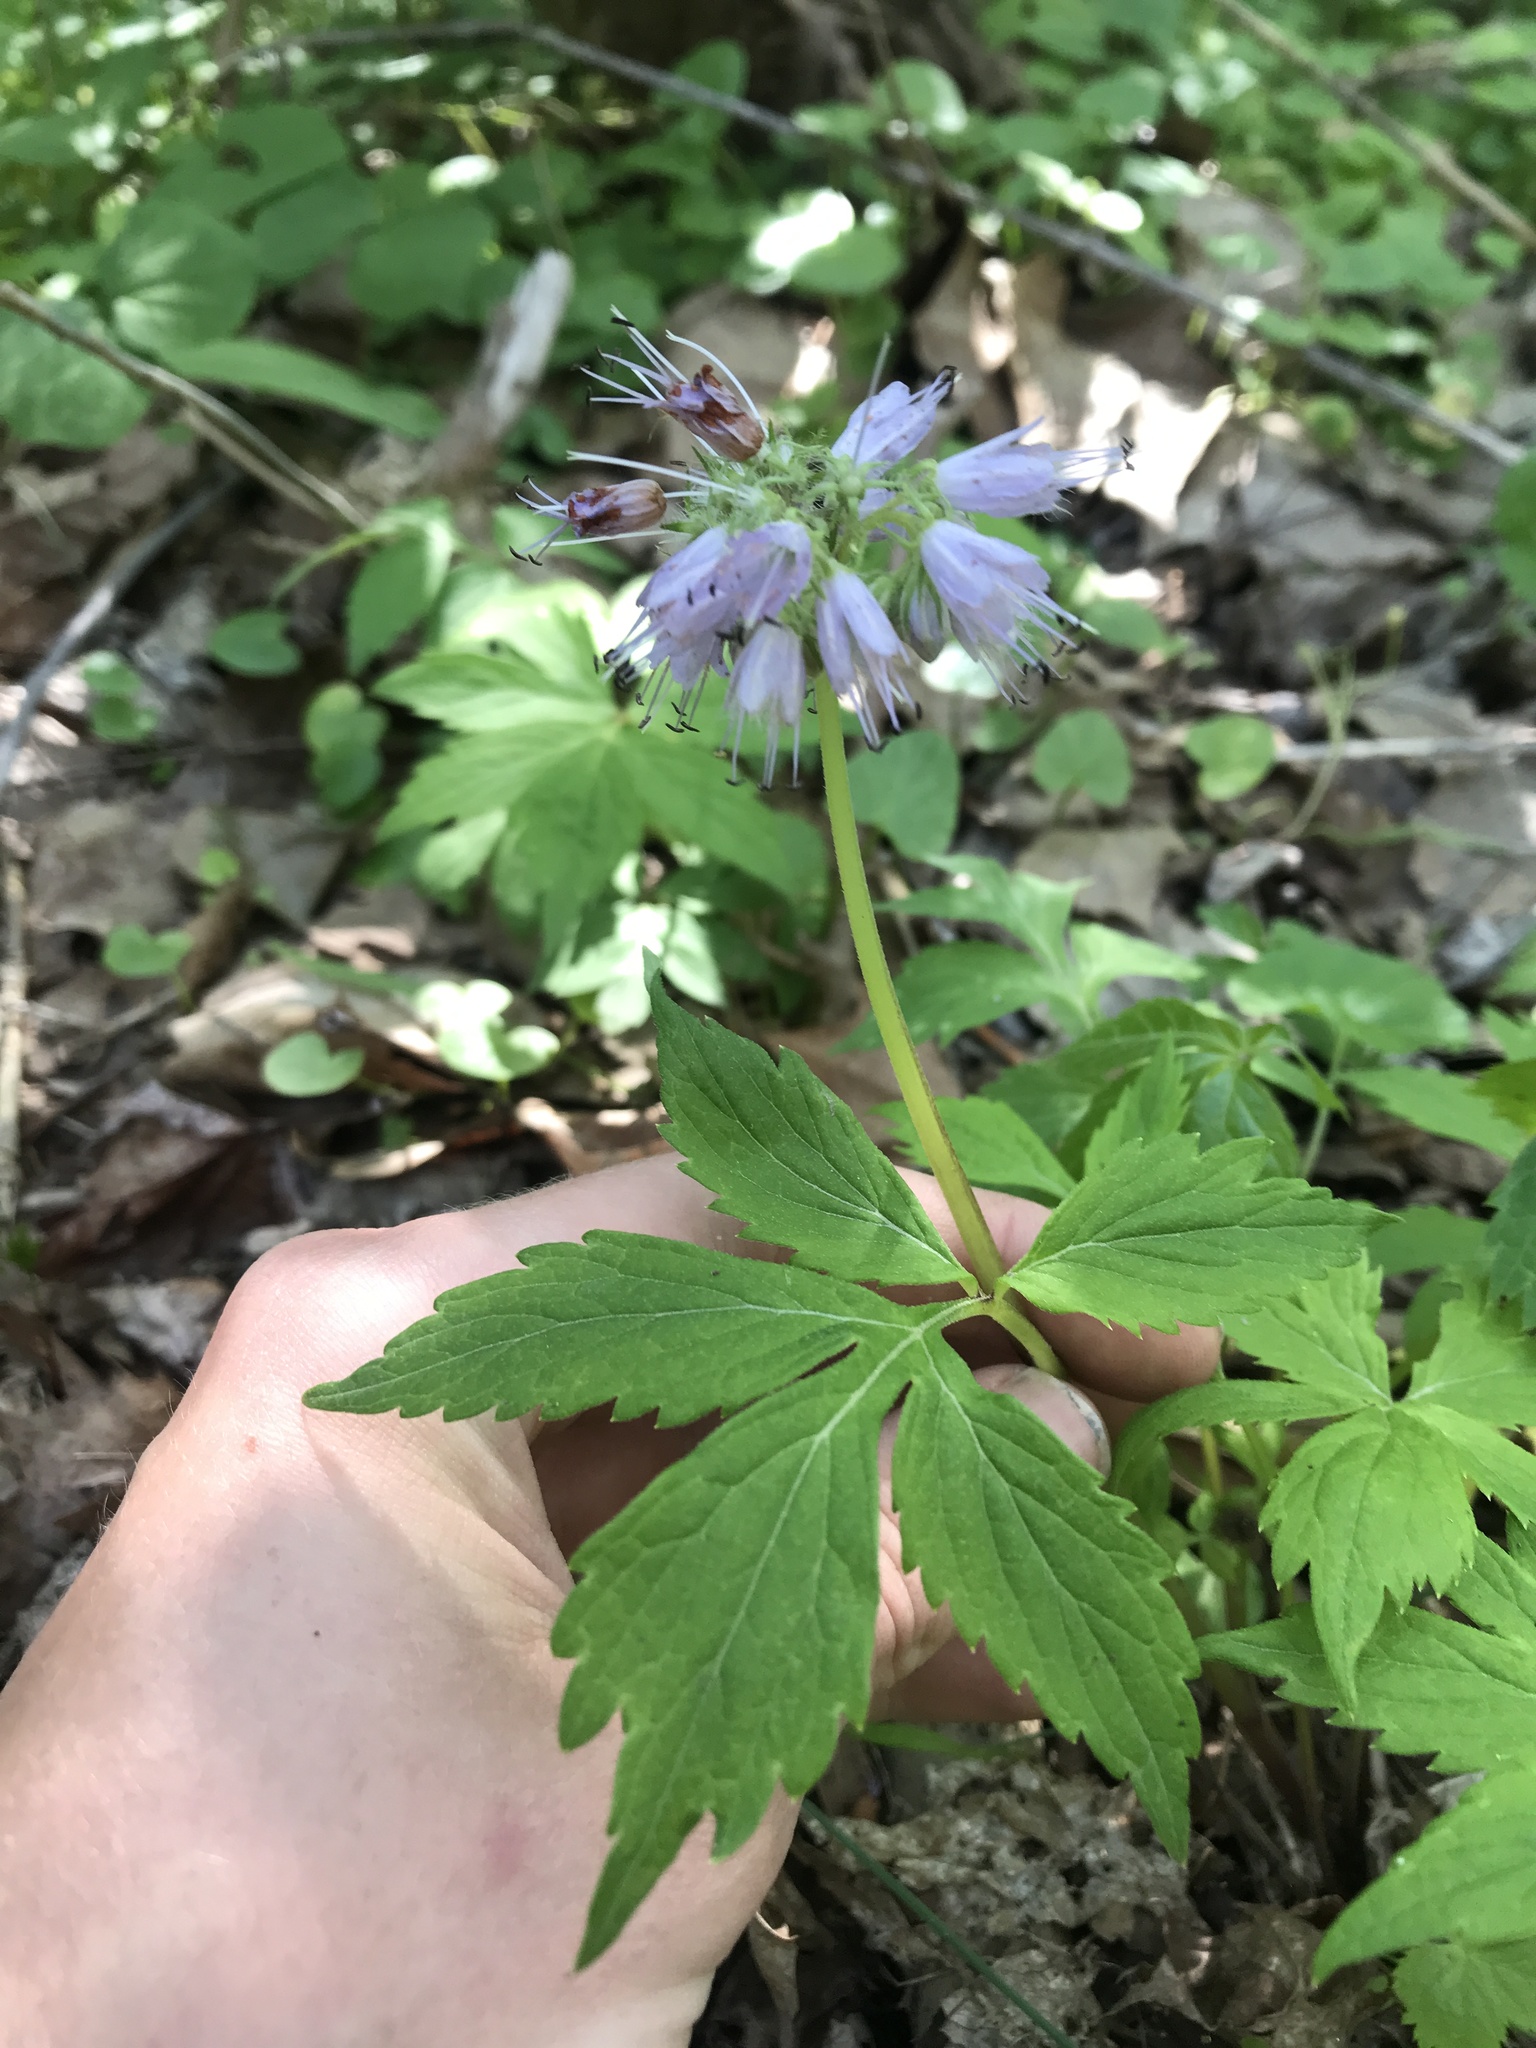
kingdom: Plantae
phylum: Tracheophyta
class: Magnoliopsida
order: Boraginales
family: Hydrophyllaceae
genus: Hydrophyllum
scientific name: Hydrophyllum virginianum
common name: Virginia waterleaf
